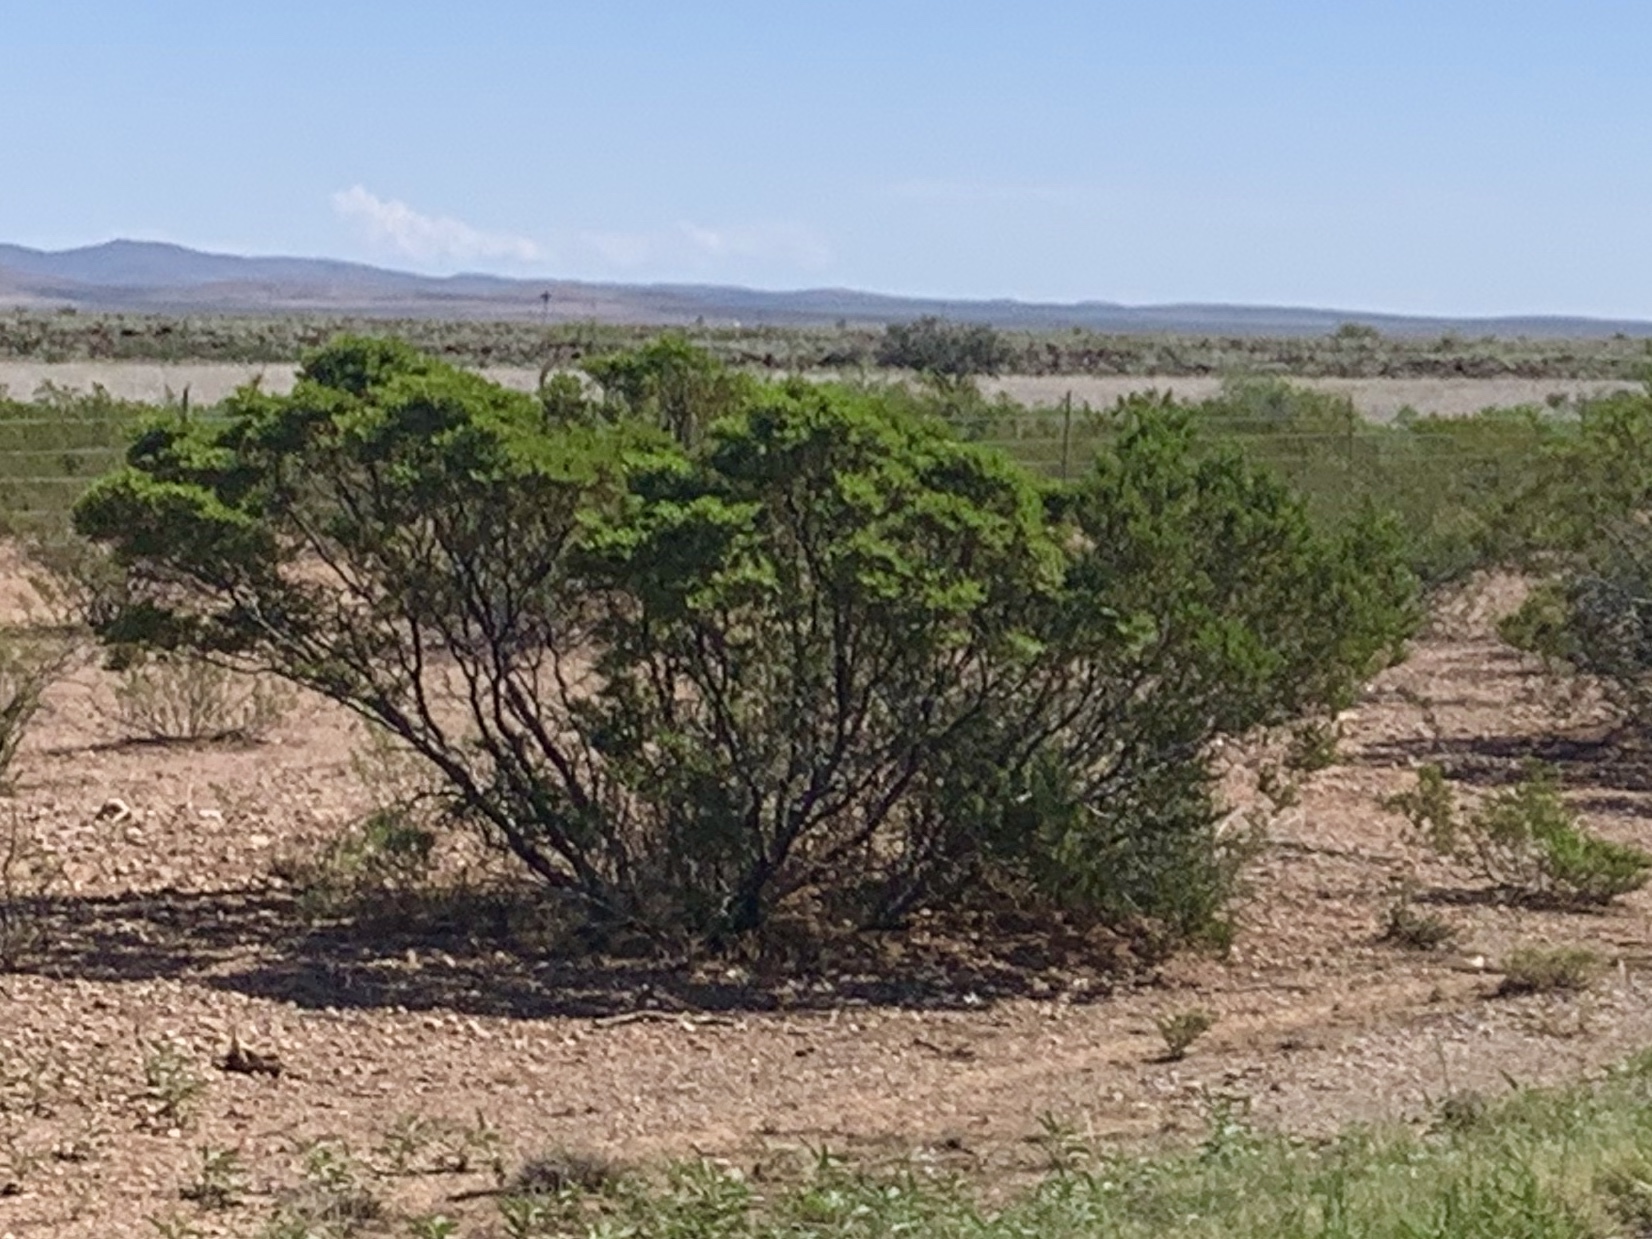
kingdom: Plantae
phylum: Tracheophyta
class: Magnoliopsida
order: Zygophyllales
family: Zygophyllaceae
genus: Larrea
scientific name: Larrea tridentata
